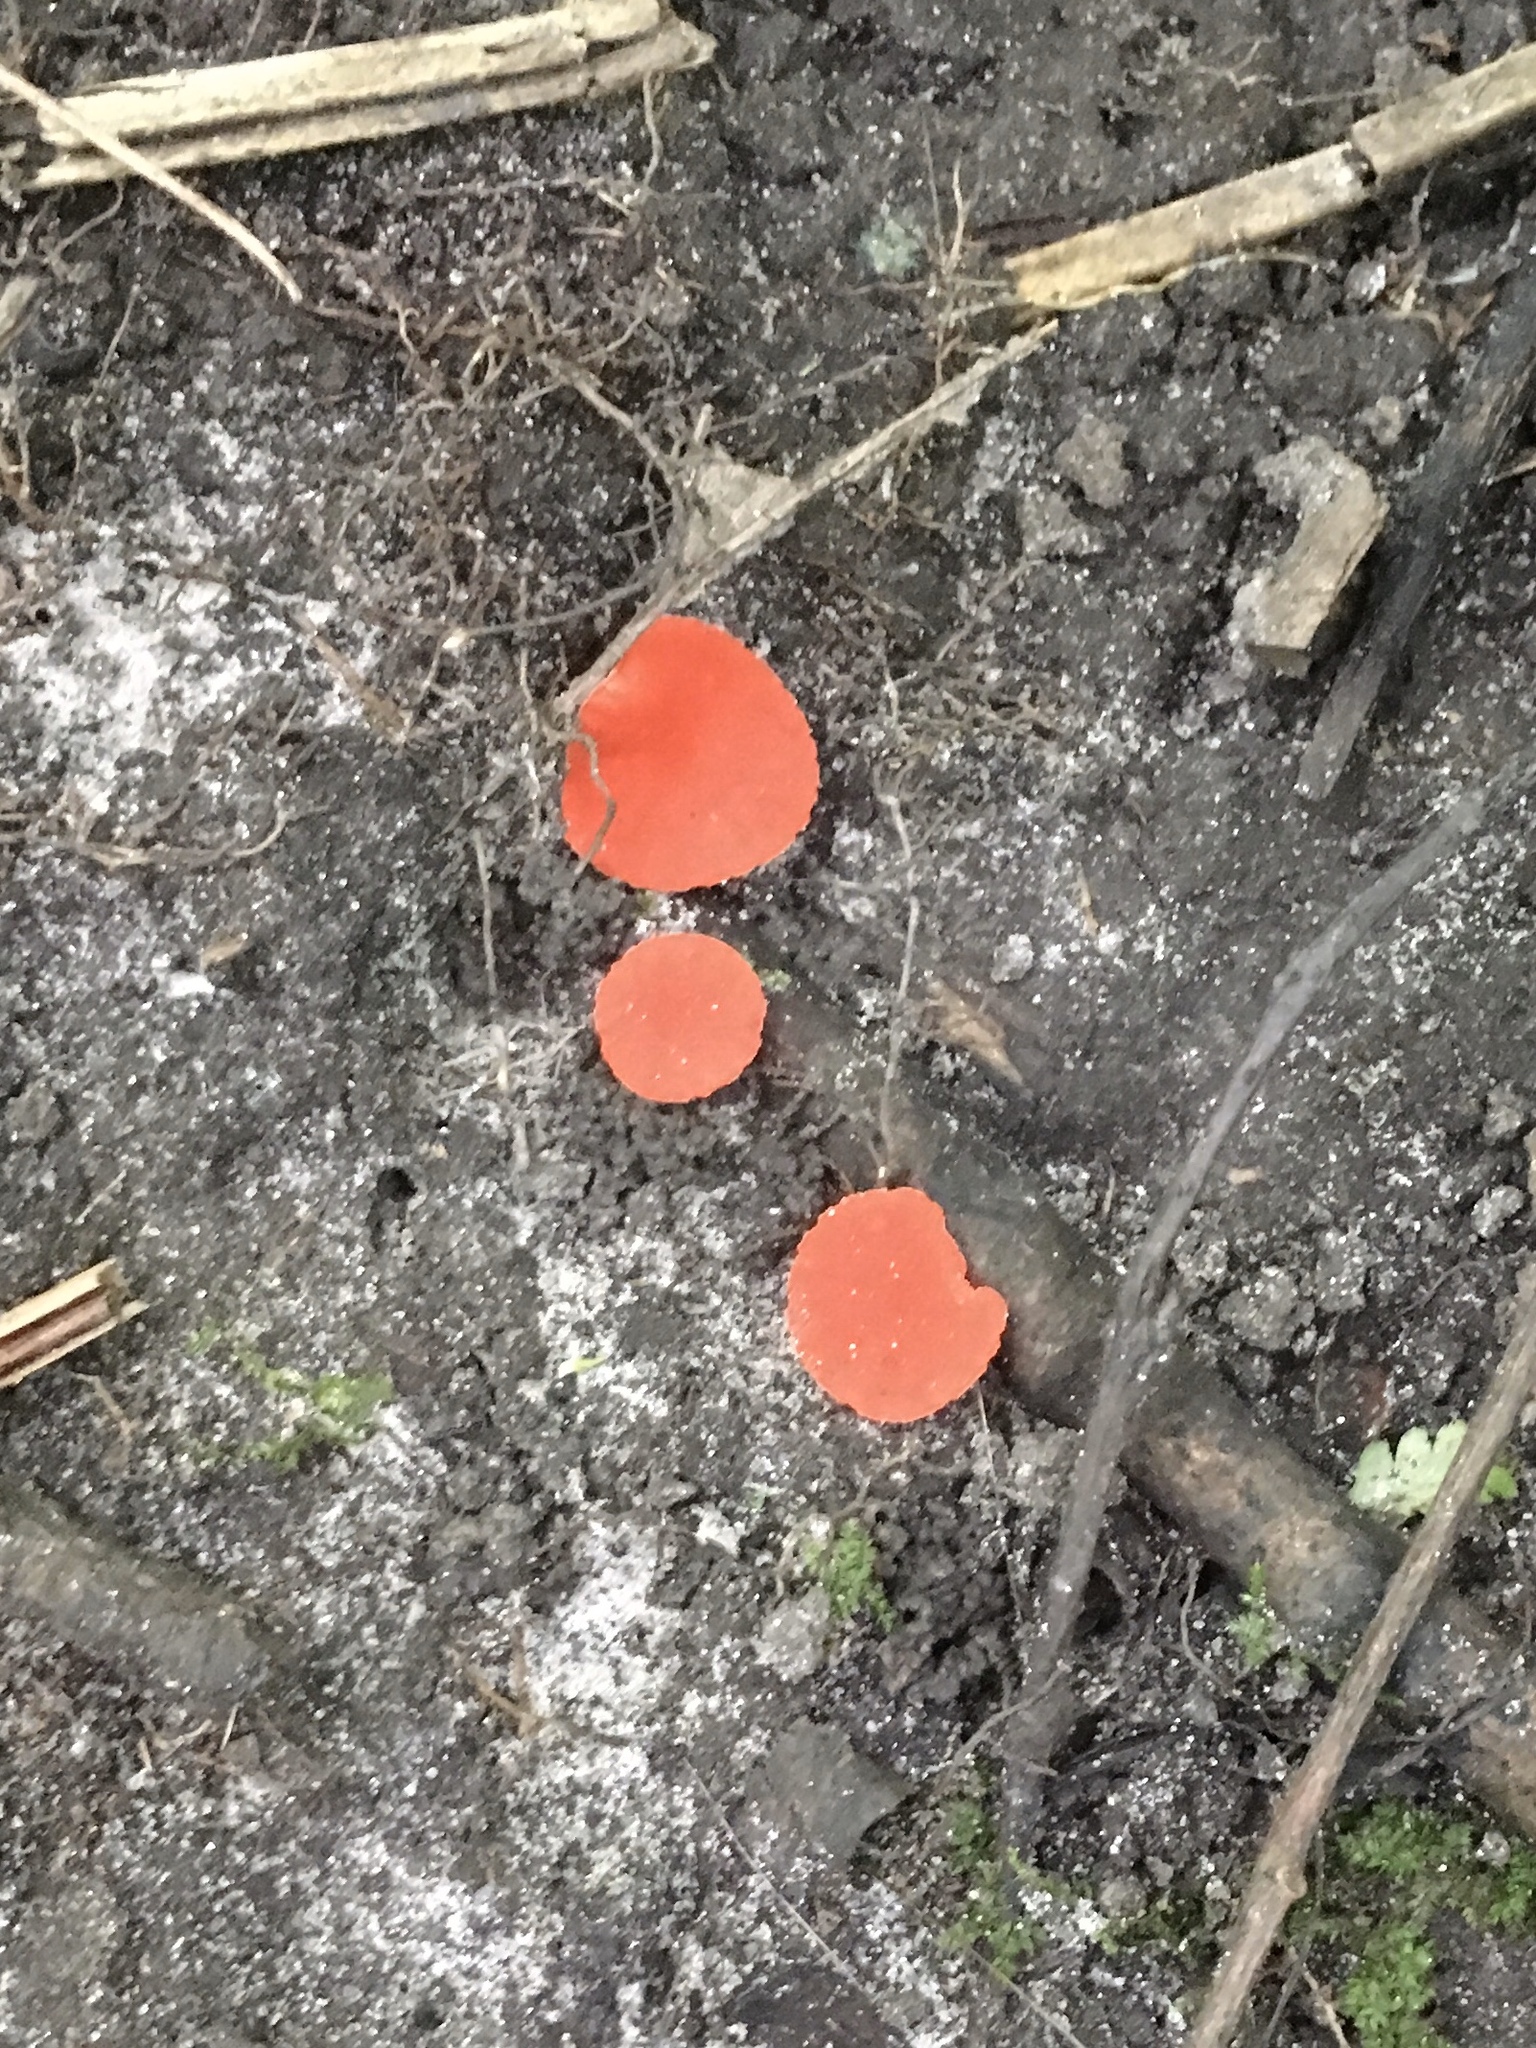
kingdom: Fungi
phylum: Ascomycota
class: Pezizomycetes
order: Pezizales
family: Sarcoscyphaceae
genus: Sarcoscypha
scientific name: Sarcoscypha occidentalis
